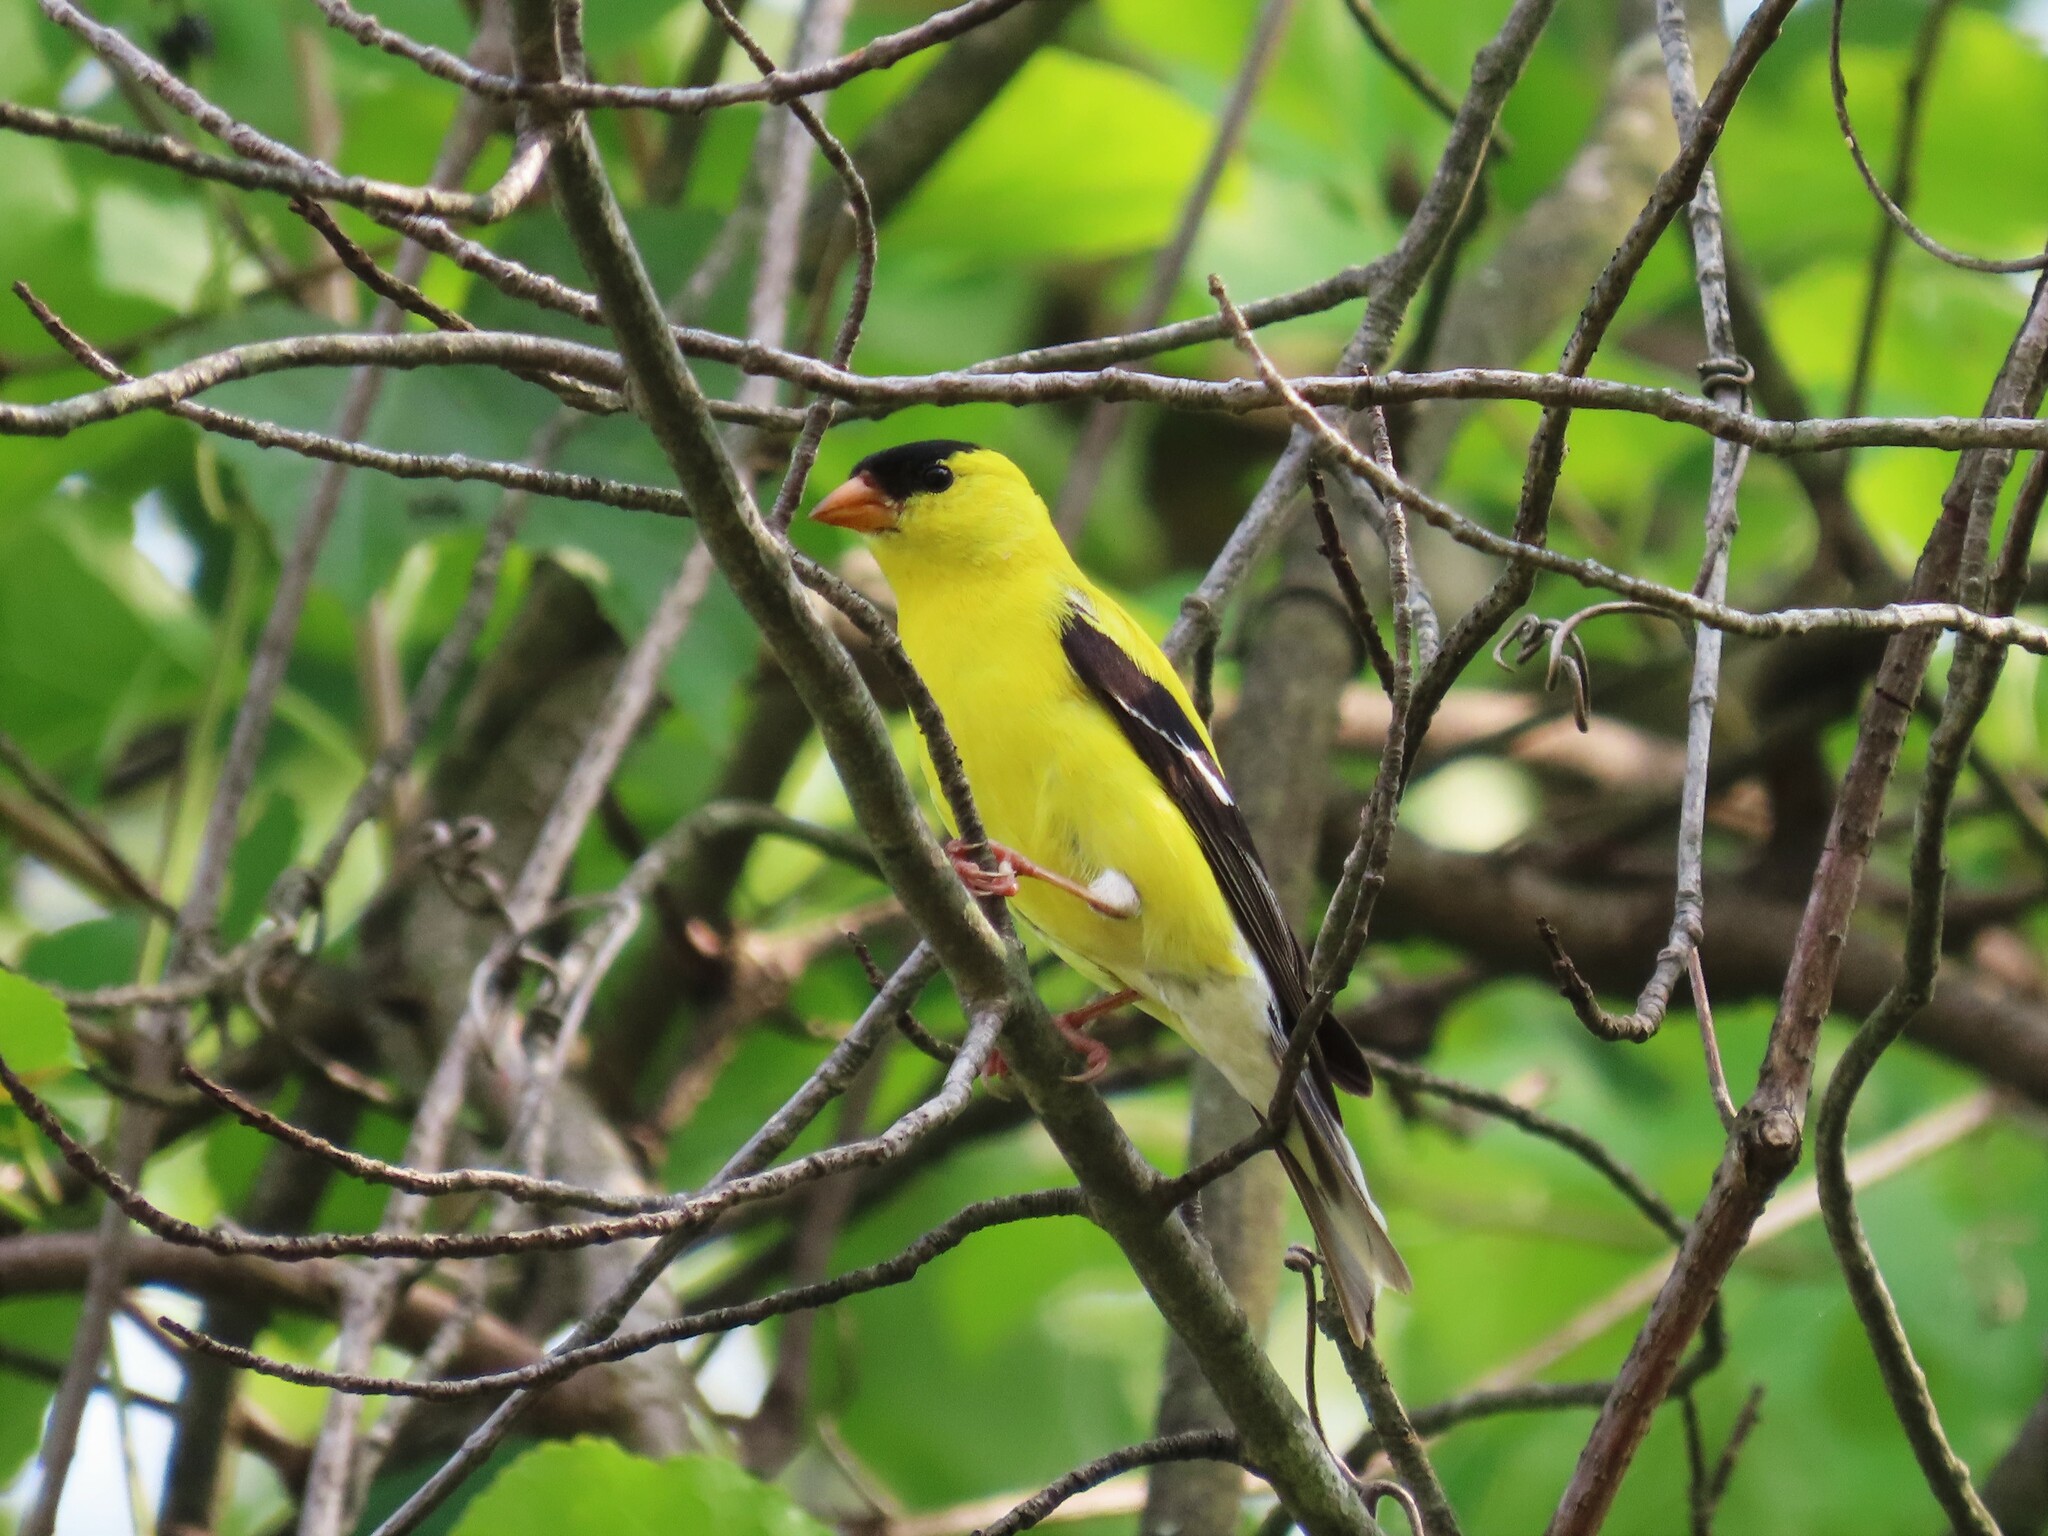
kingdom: Animalia
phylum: Chordata
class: Aves
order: Passeriformes
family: Fringillidae
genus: Spinus
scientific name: Spinus tristis
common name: American goldfinch
